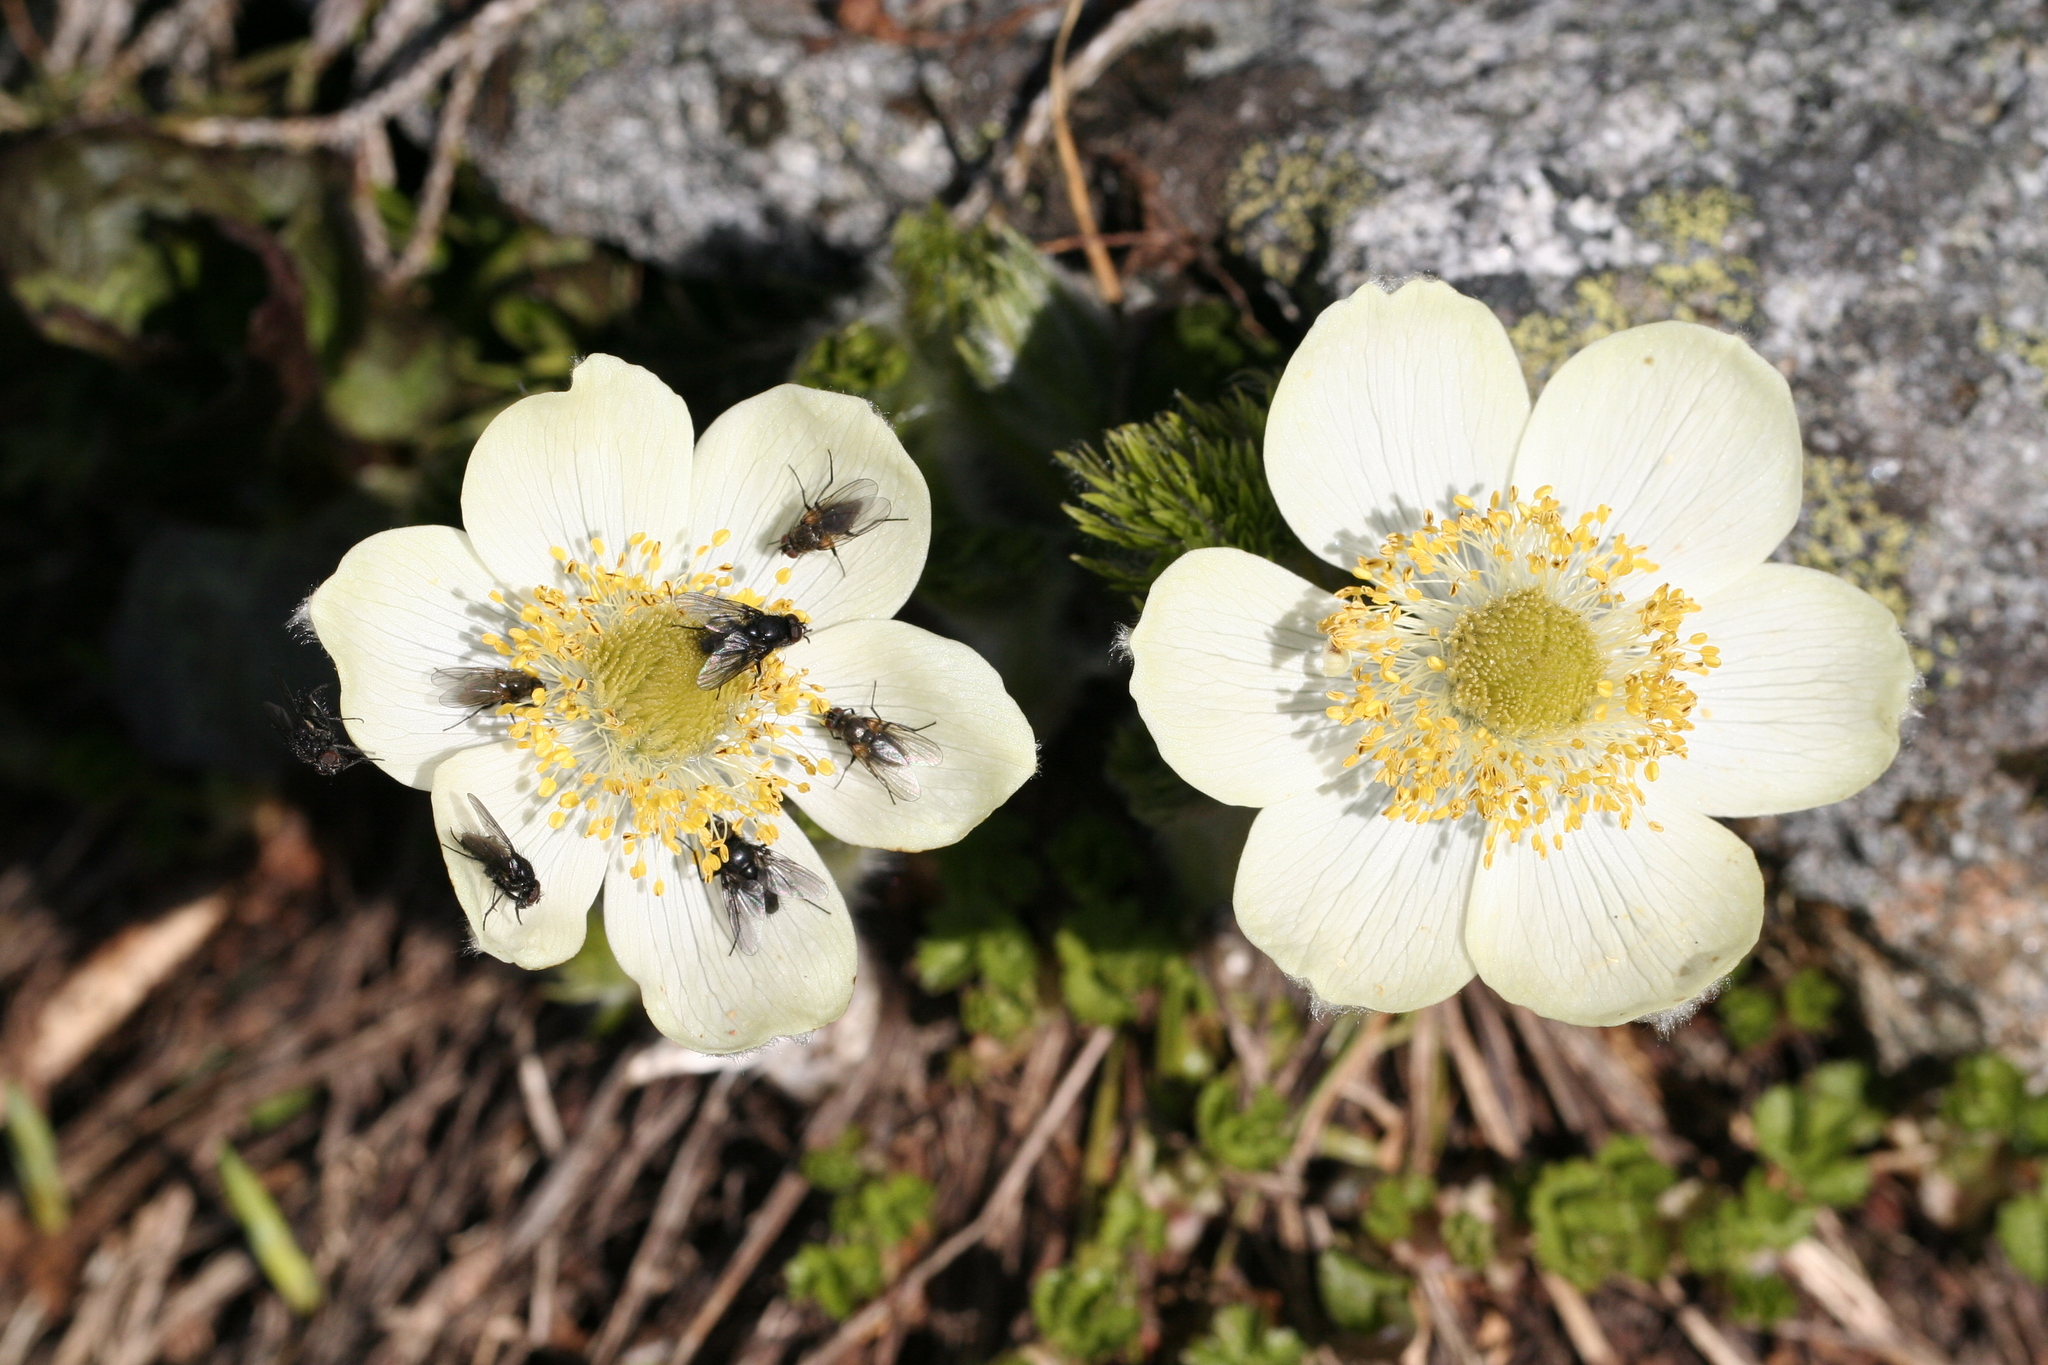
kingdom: Plantae
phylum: Tracheophyta
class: Magnoliopsida
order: Ranunculales
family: Ranunculaceae
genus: Pulsatilla
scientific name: Pulsatilla occidentalis
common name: Mountain pasqueflower
